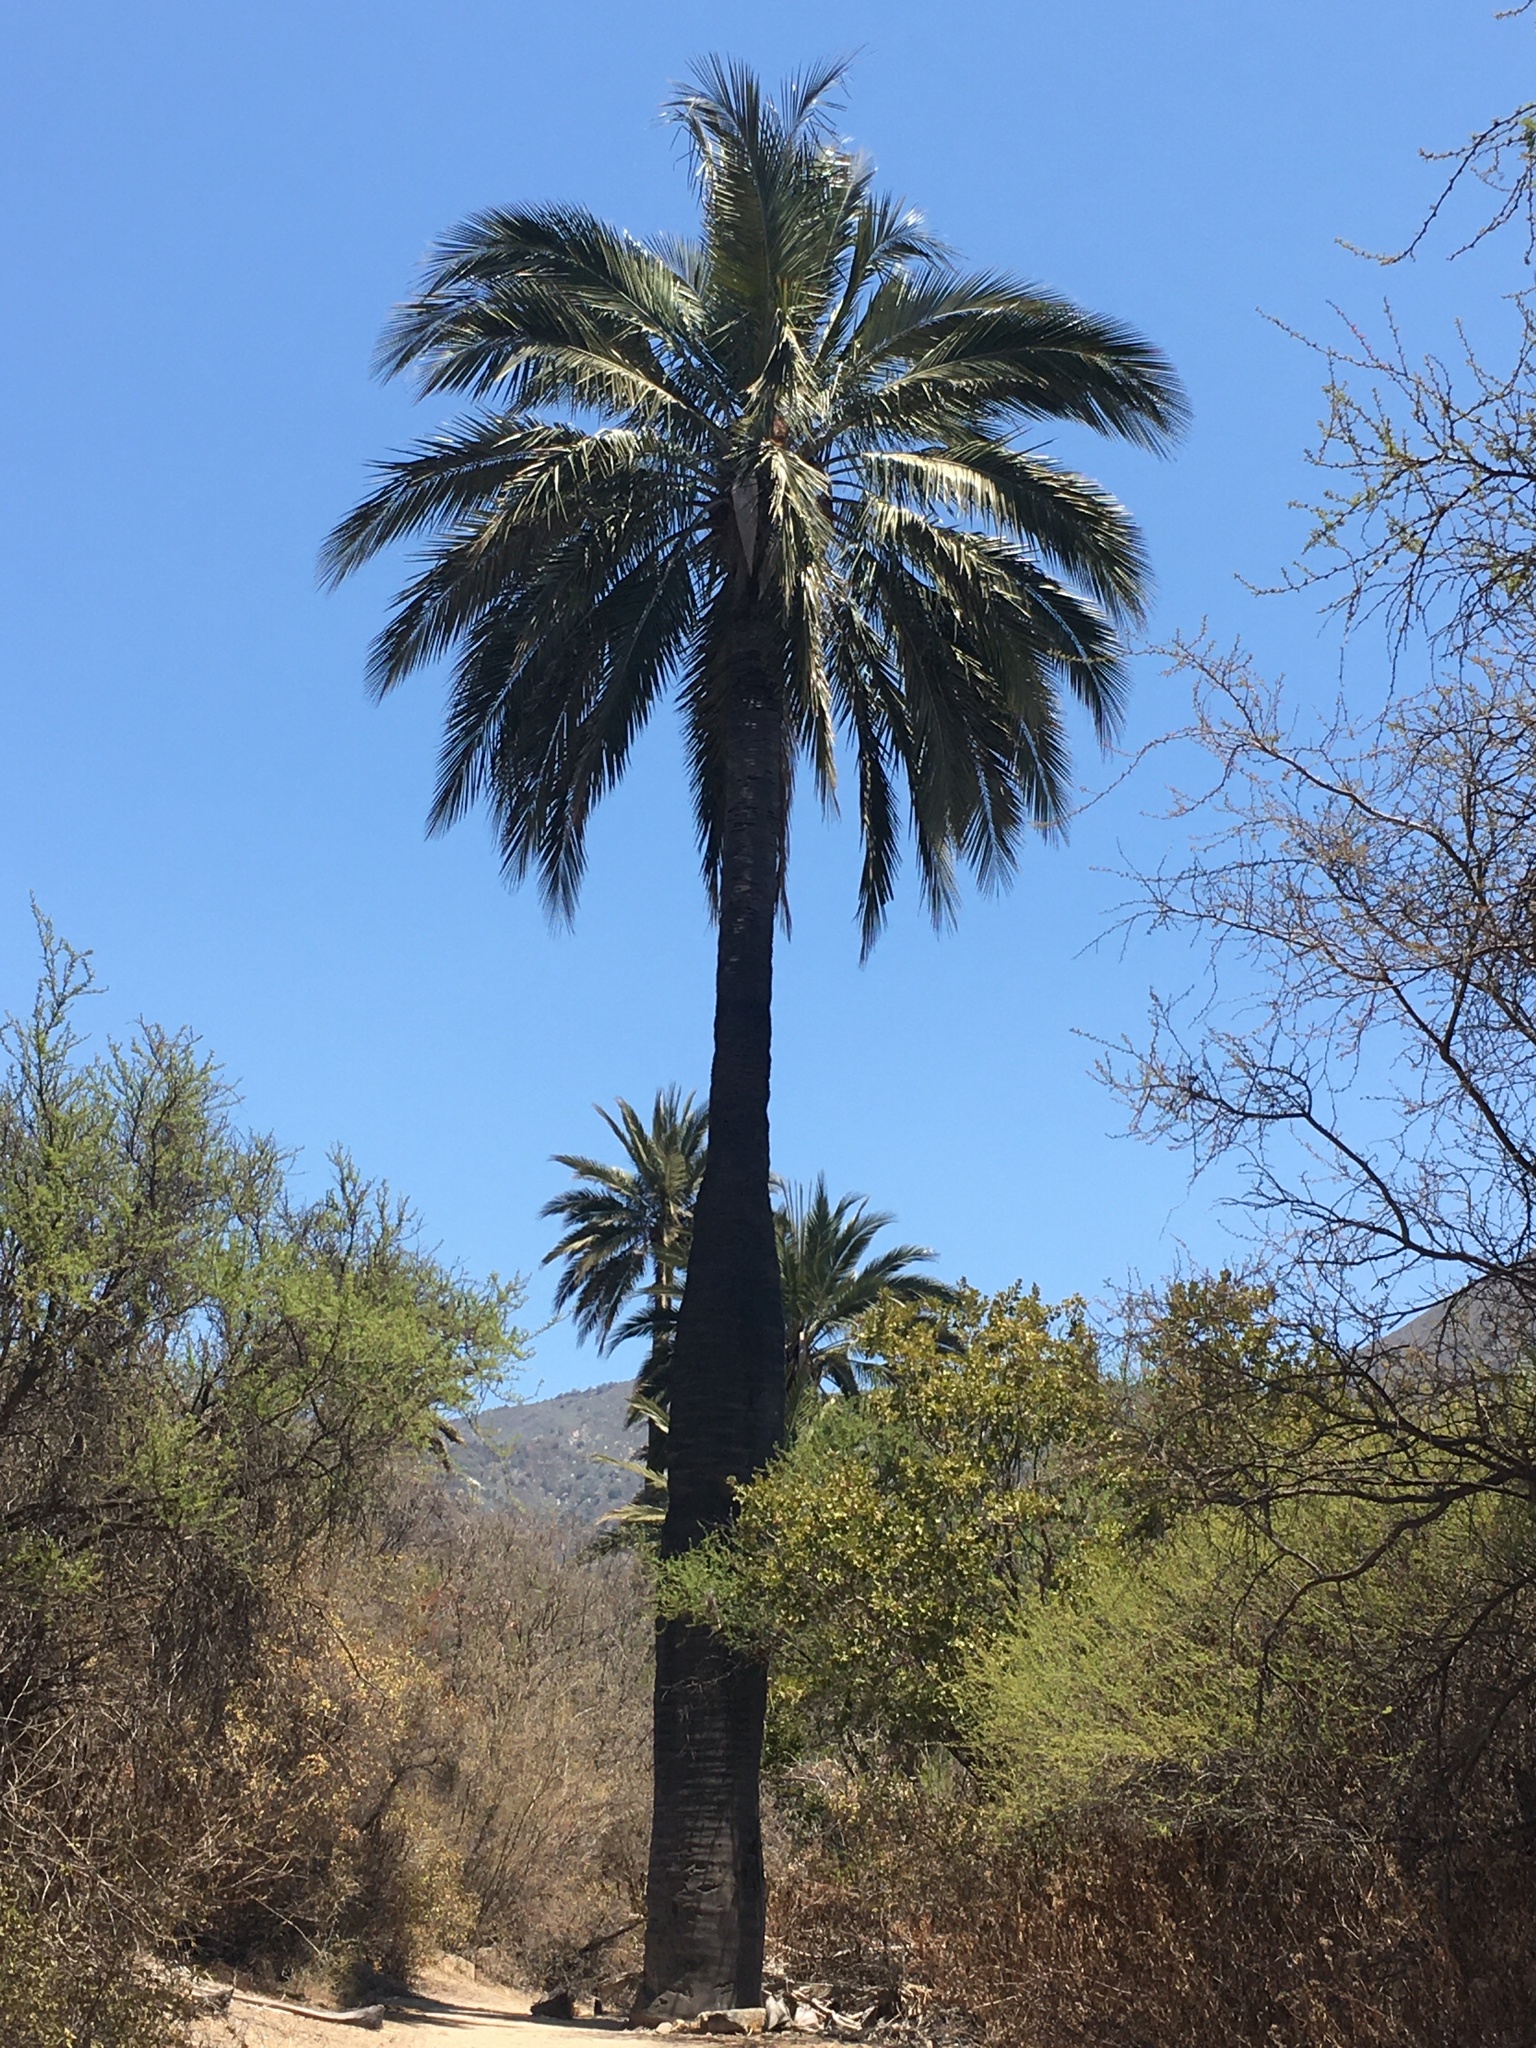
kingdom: Plantae
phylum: Tracheophyta
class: Liliopsida
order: Arecales
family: Arecaceae
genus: Jubaea
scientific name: Jubaea chilensis
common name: Coquito palm
